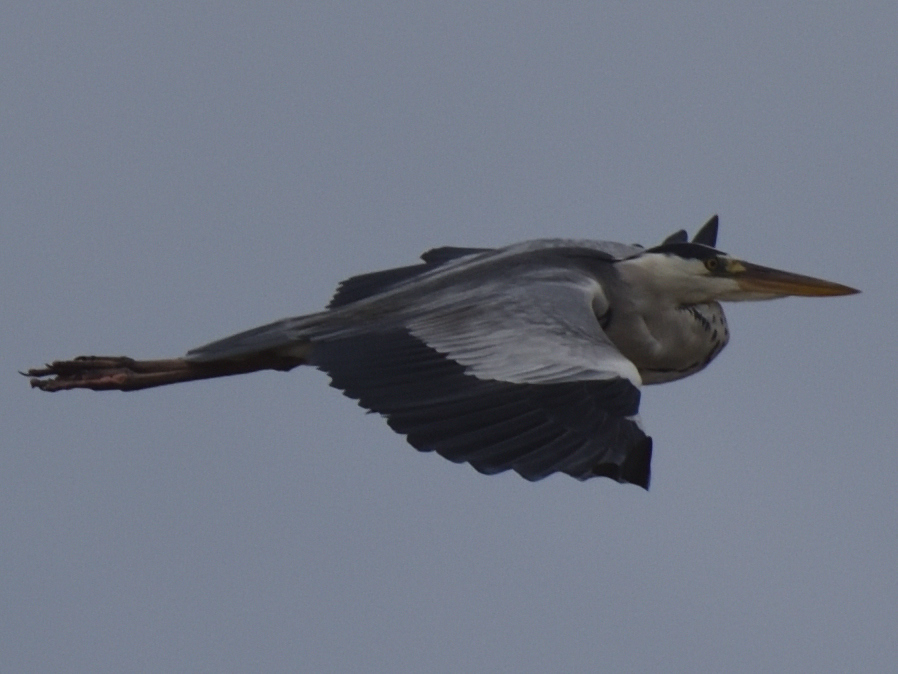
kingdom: Animalia
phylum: Chordata
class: Aves
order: Pelecaniformes
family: Ardeidae
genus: Ardea
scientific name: Ardea cinerea
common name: Grey heron
